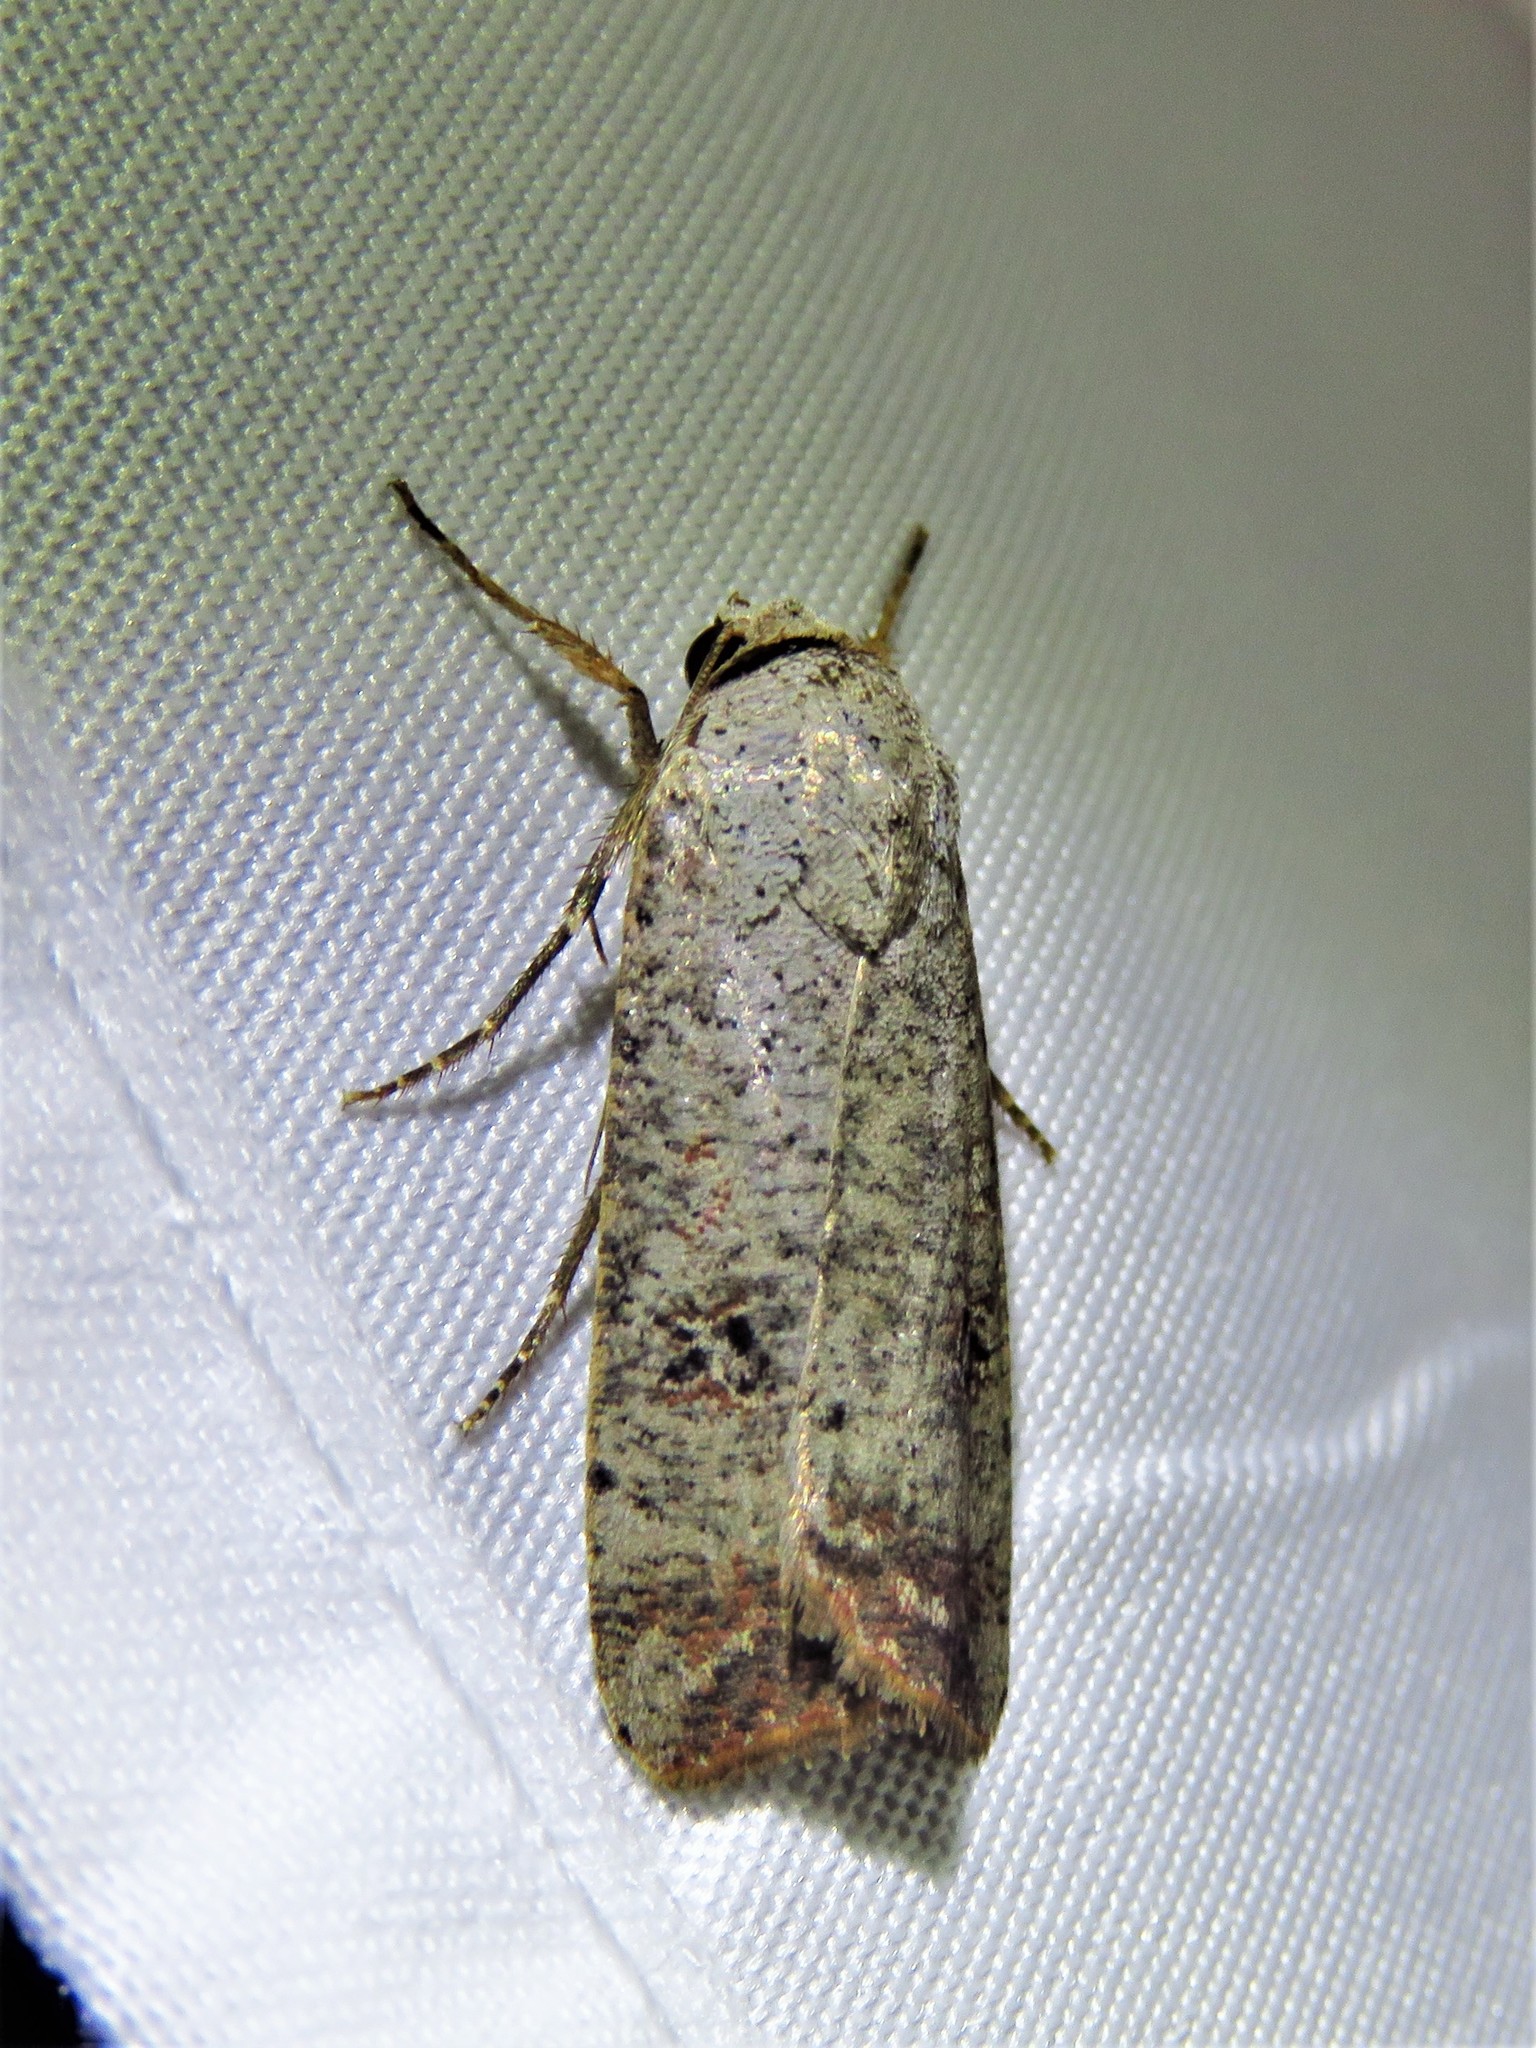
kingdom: Animalia
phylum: Arthropoda
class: Insecta
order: Lepidoptera
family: Noctuidae
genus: Anicla
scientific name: Anicla infecta
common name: Green cutworm
